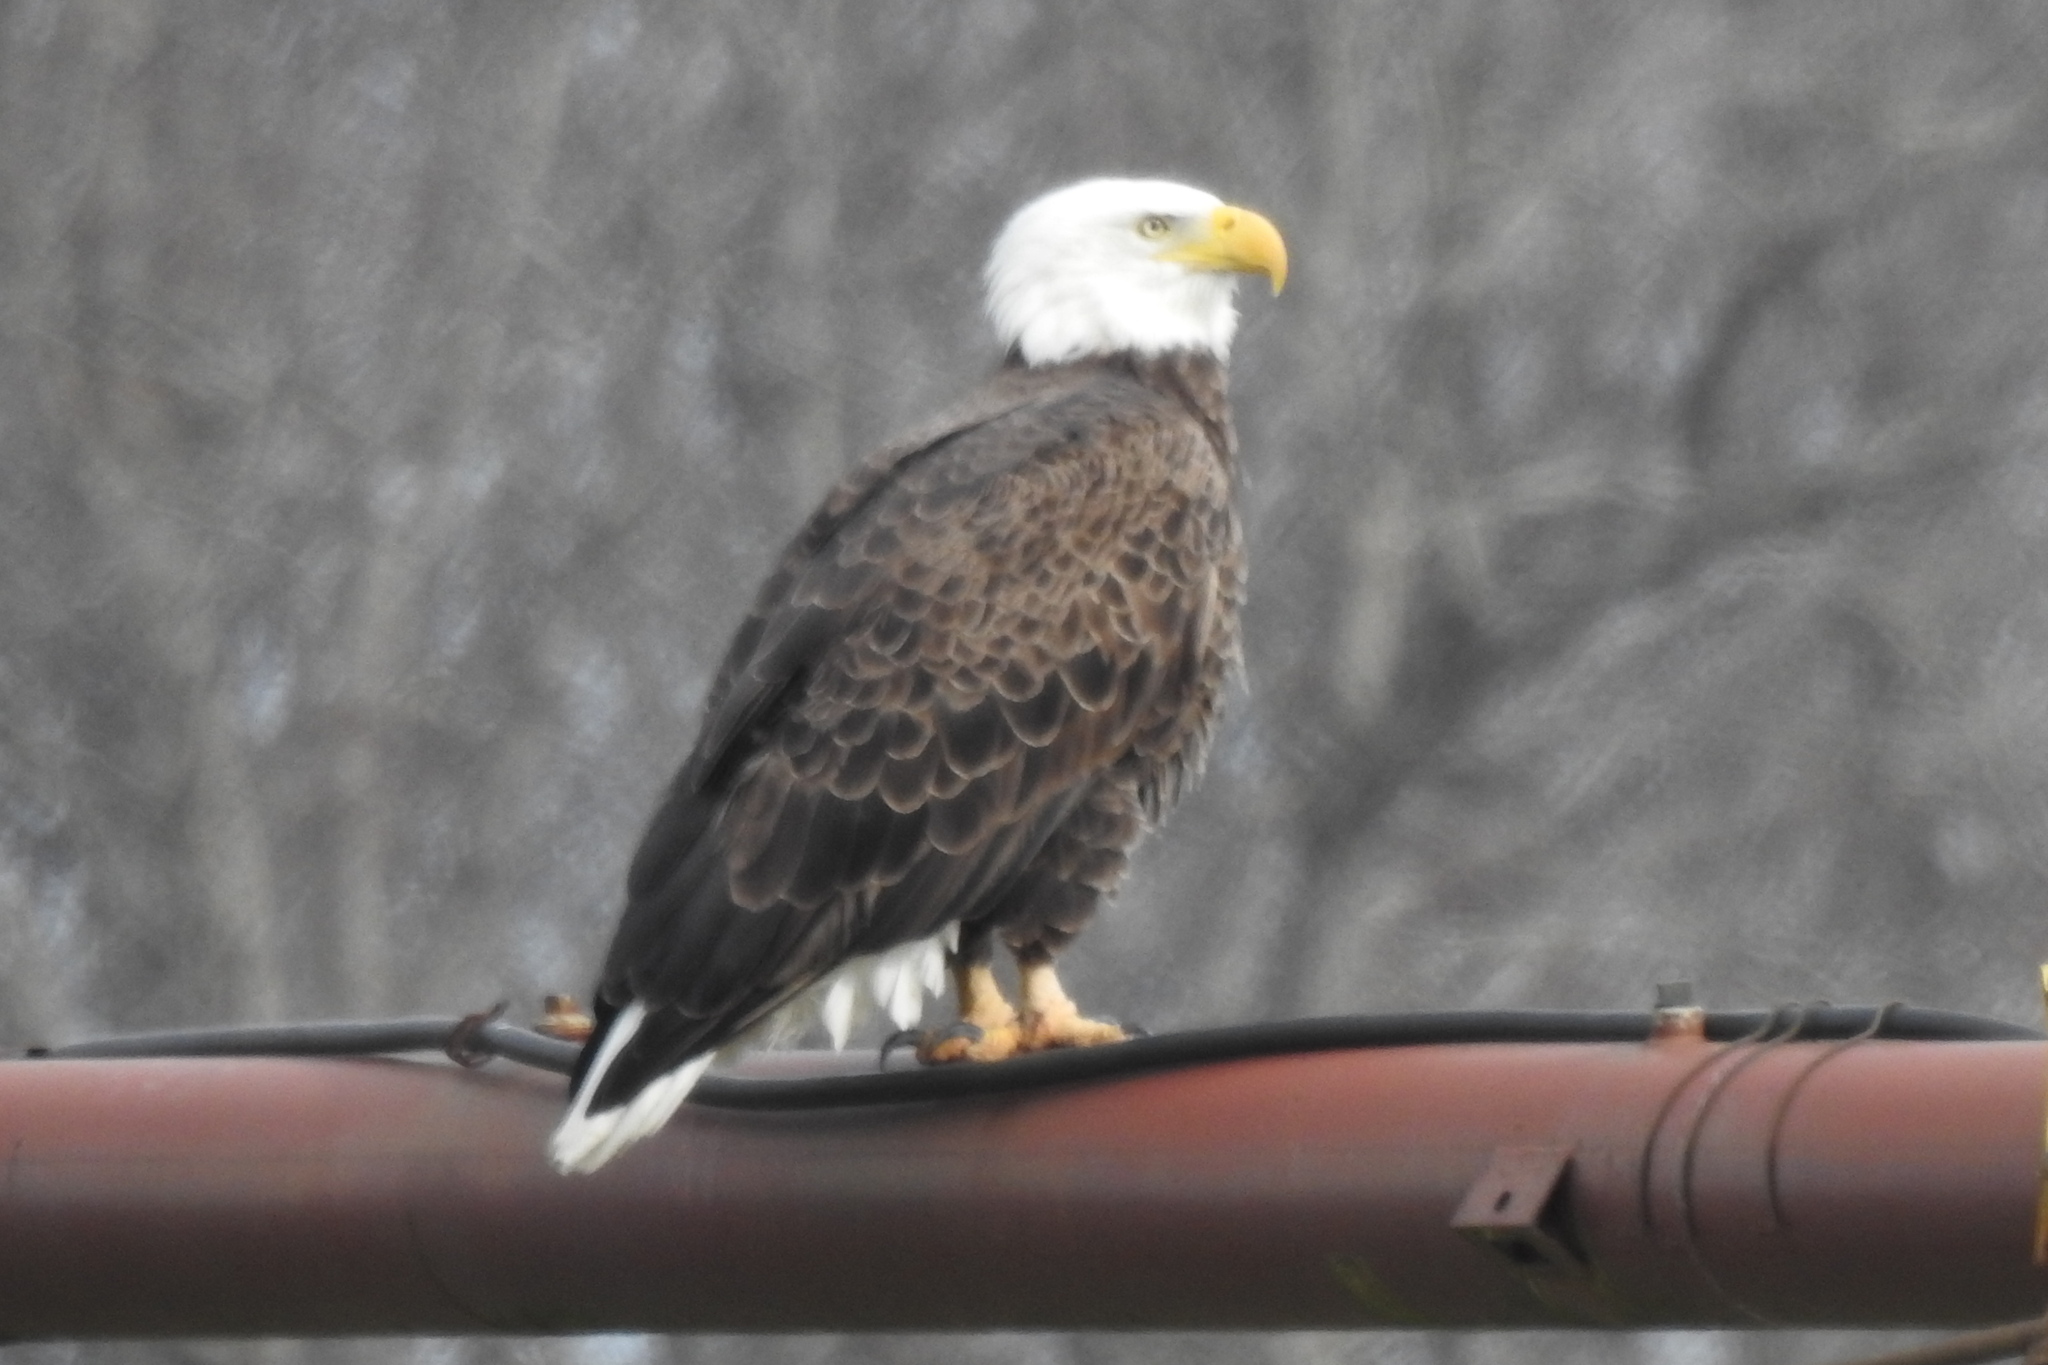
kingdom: Animalia
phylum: Chordata
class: Aves
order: Accipitriformes
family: Accipitridae
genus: Haliaeetus
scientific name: Haliaeetus leucocephalus
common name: Bald eagle
